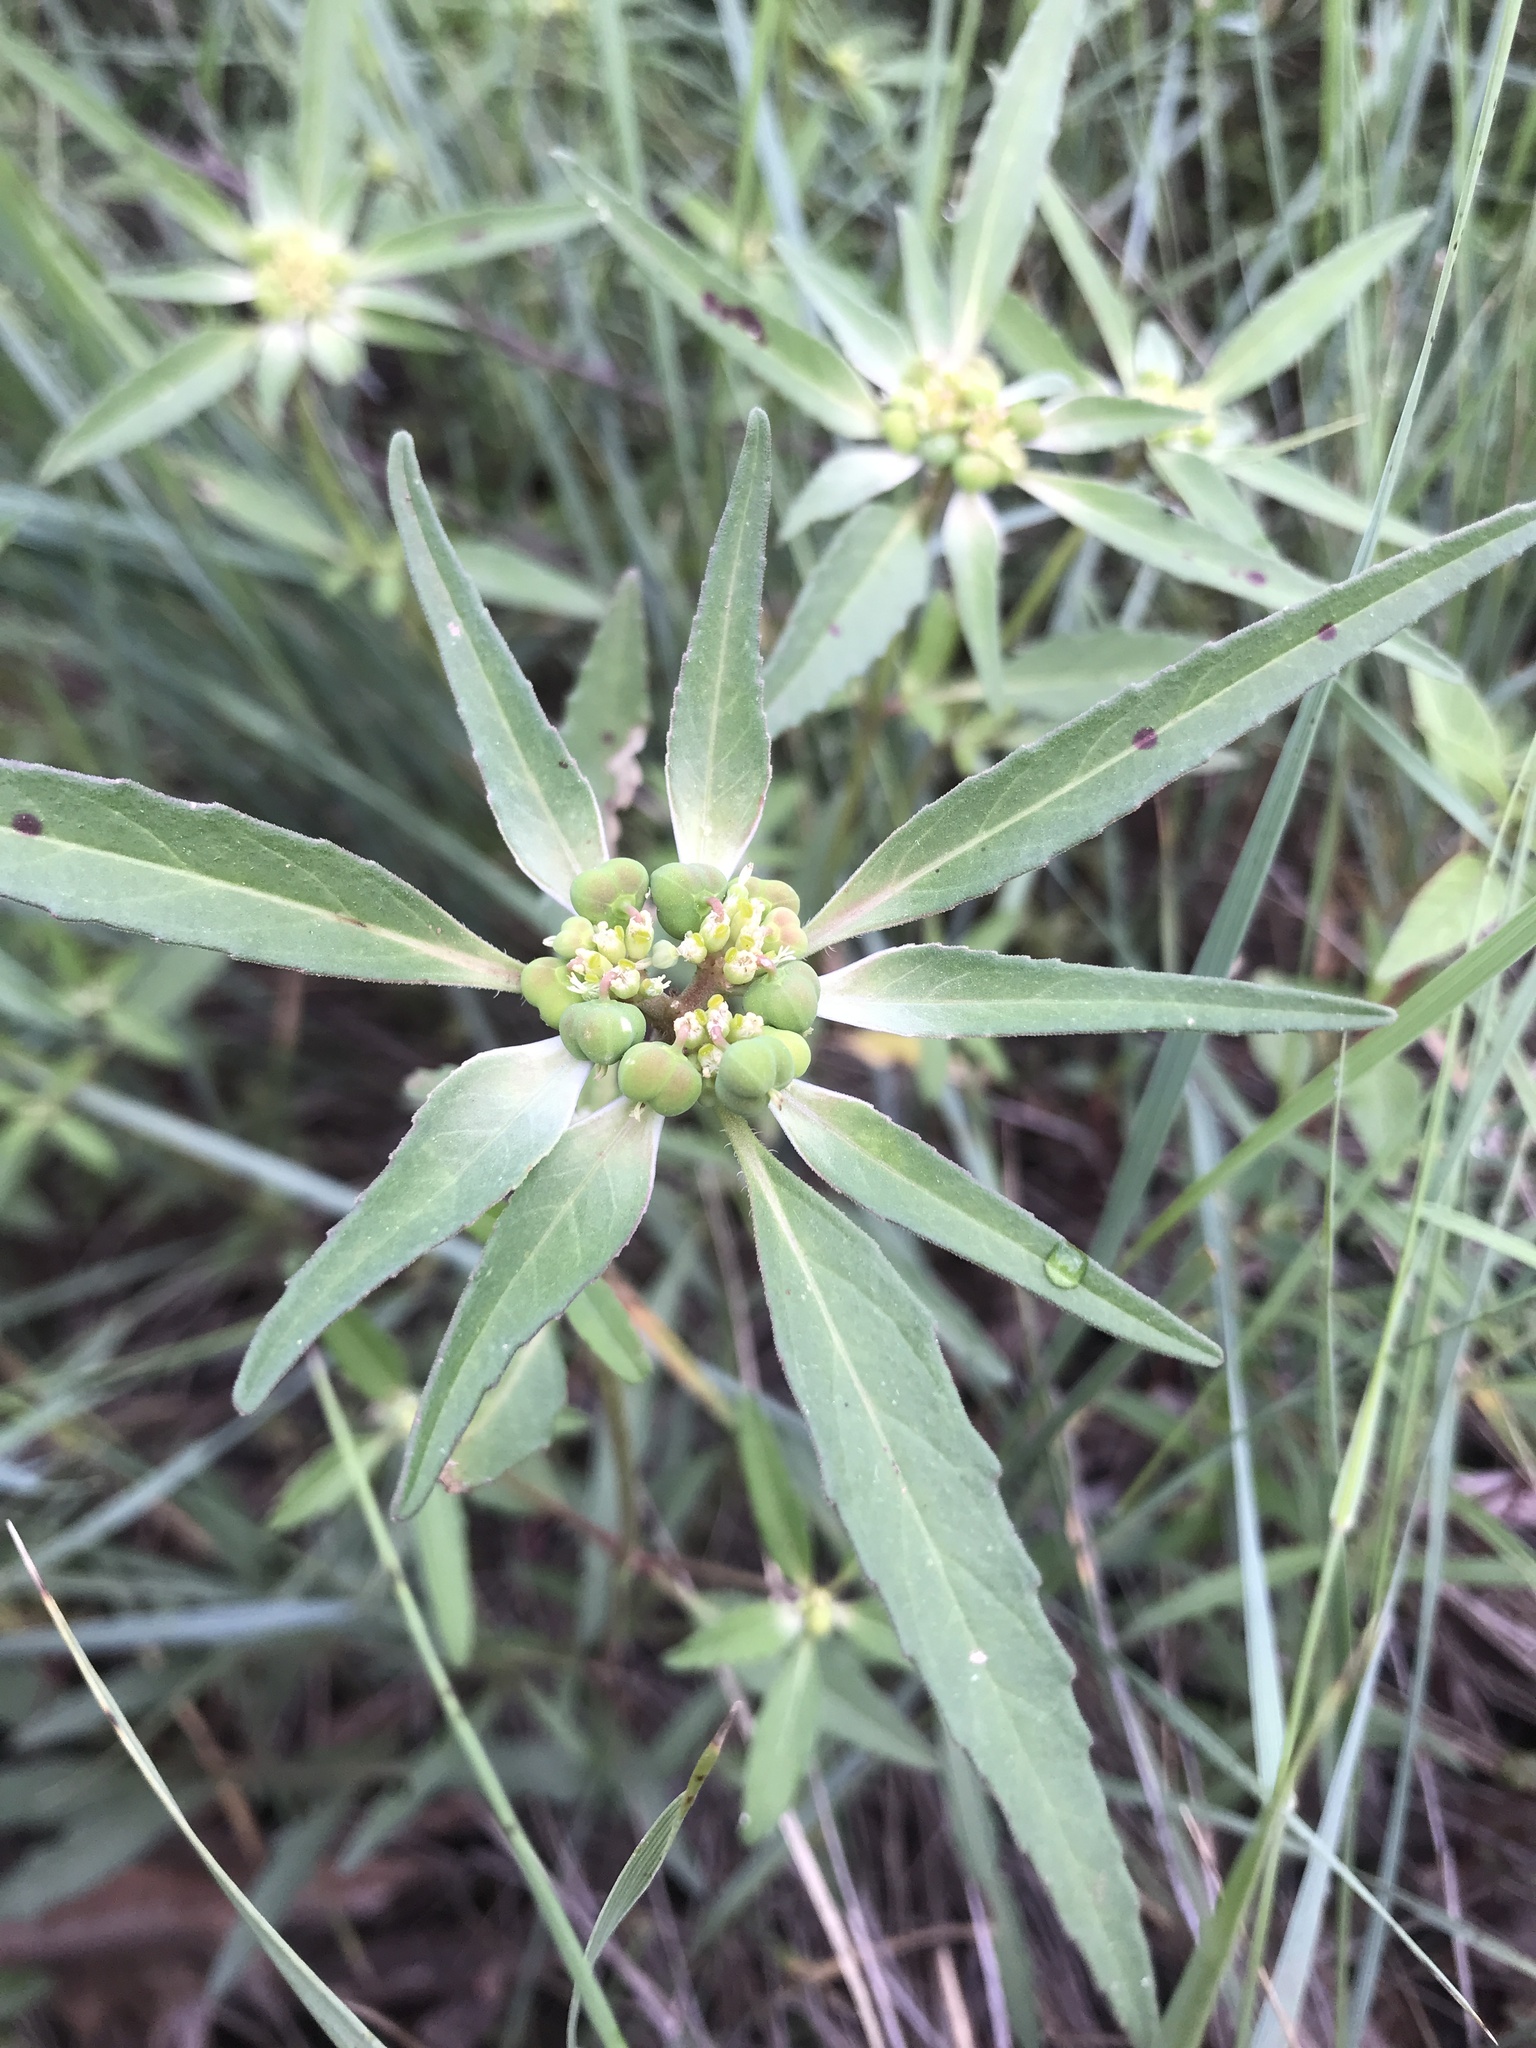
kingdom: Plantae
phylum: Tracheophyta
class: Magnoliopsida
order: Malpighiales
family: Euphorbiaceae
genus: Euphorbia
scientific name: Euphorbia davidii
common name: David's spurge
